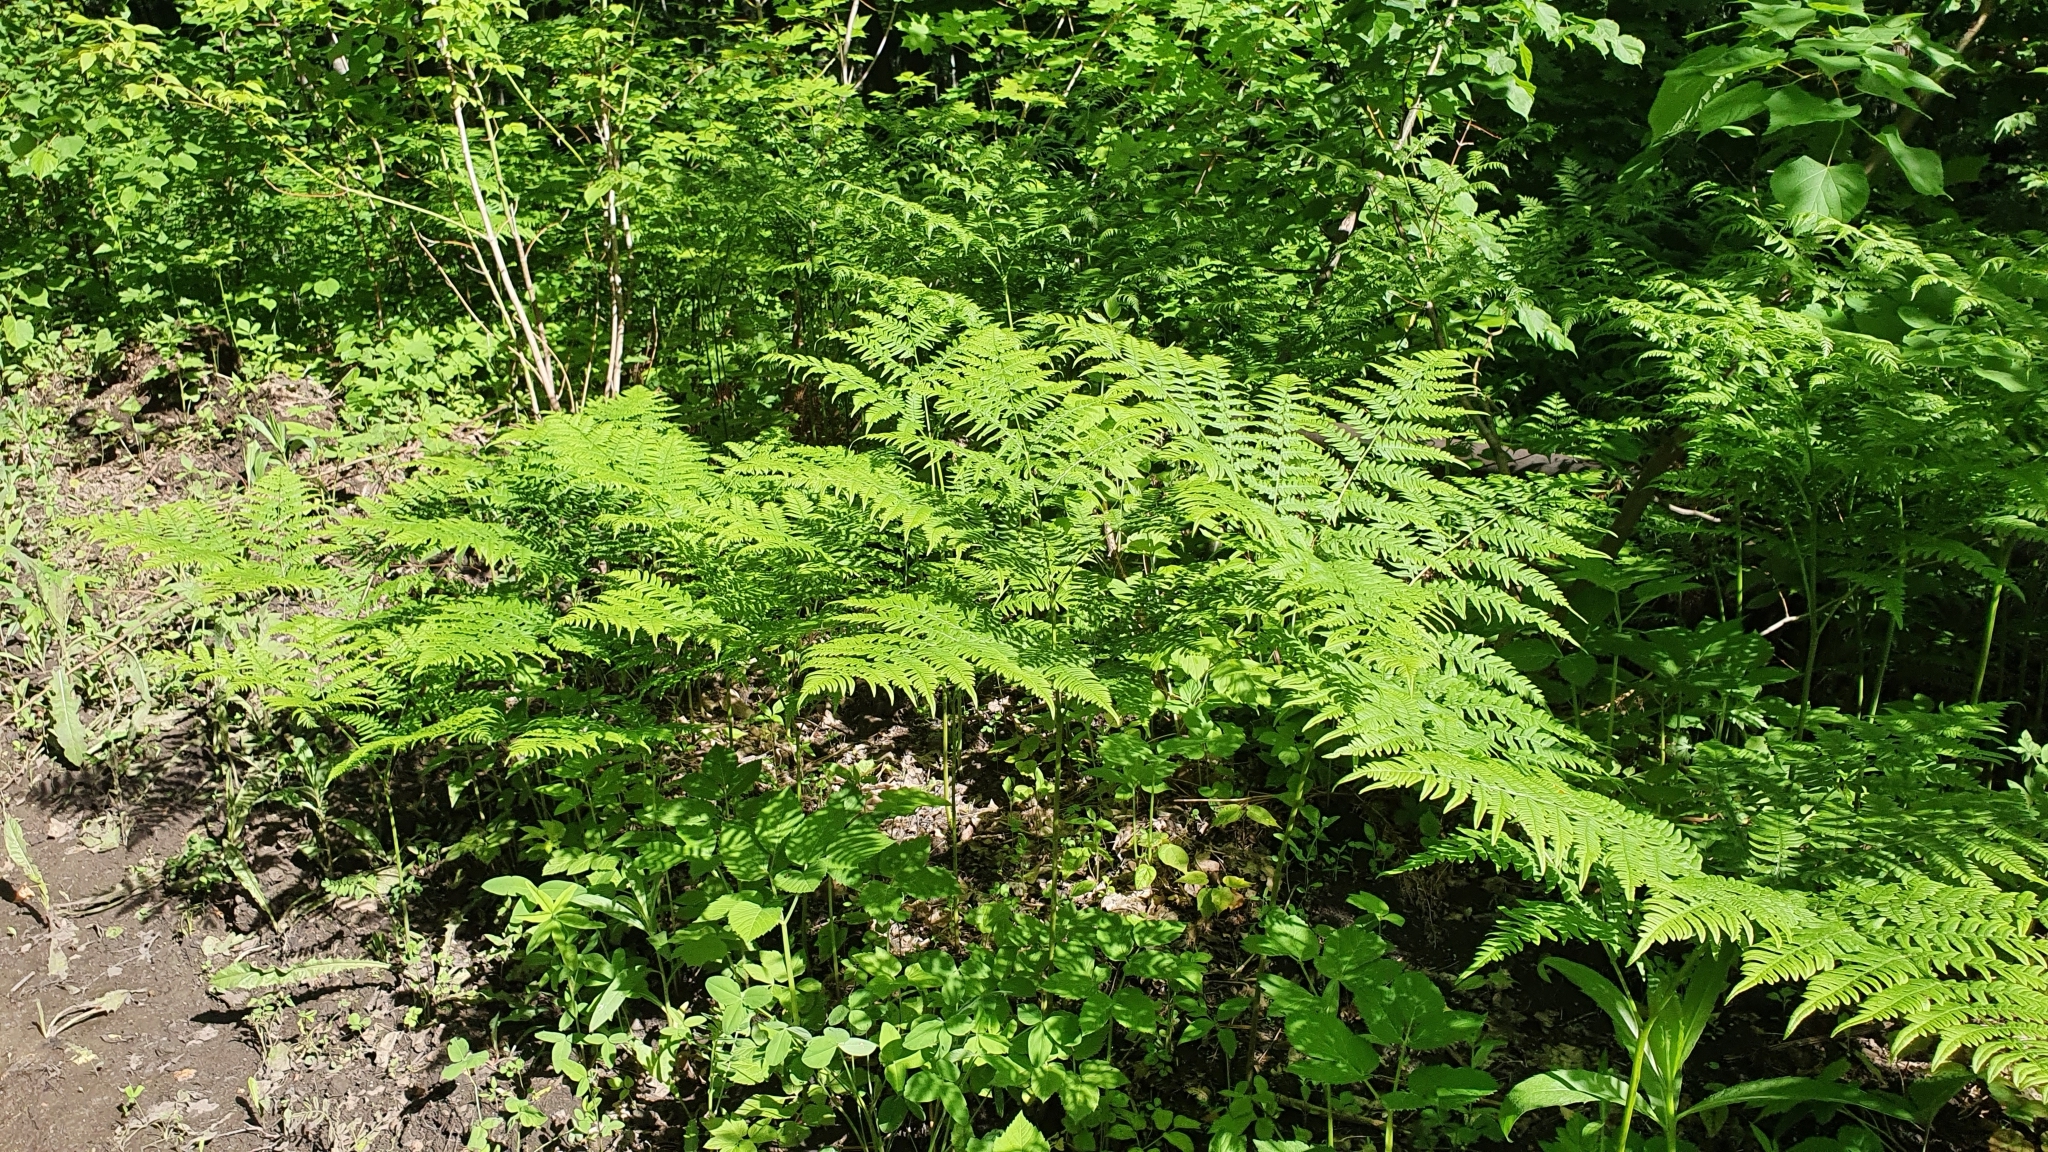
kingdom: Plantae
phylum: Tracheophyta
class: Polypodiopsida
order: Polypodiales
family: Dennstaedtiaceae
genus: Pteridium
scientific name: Pteridium aquilinum
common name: Bracken
